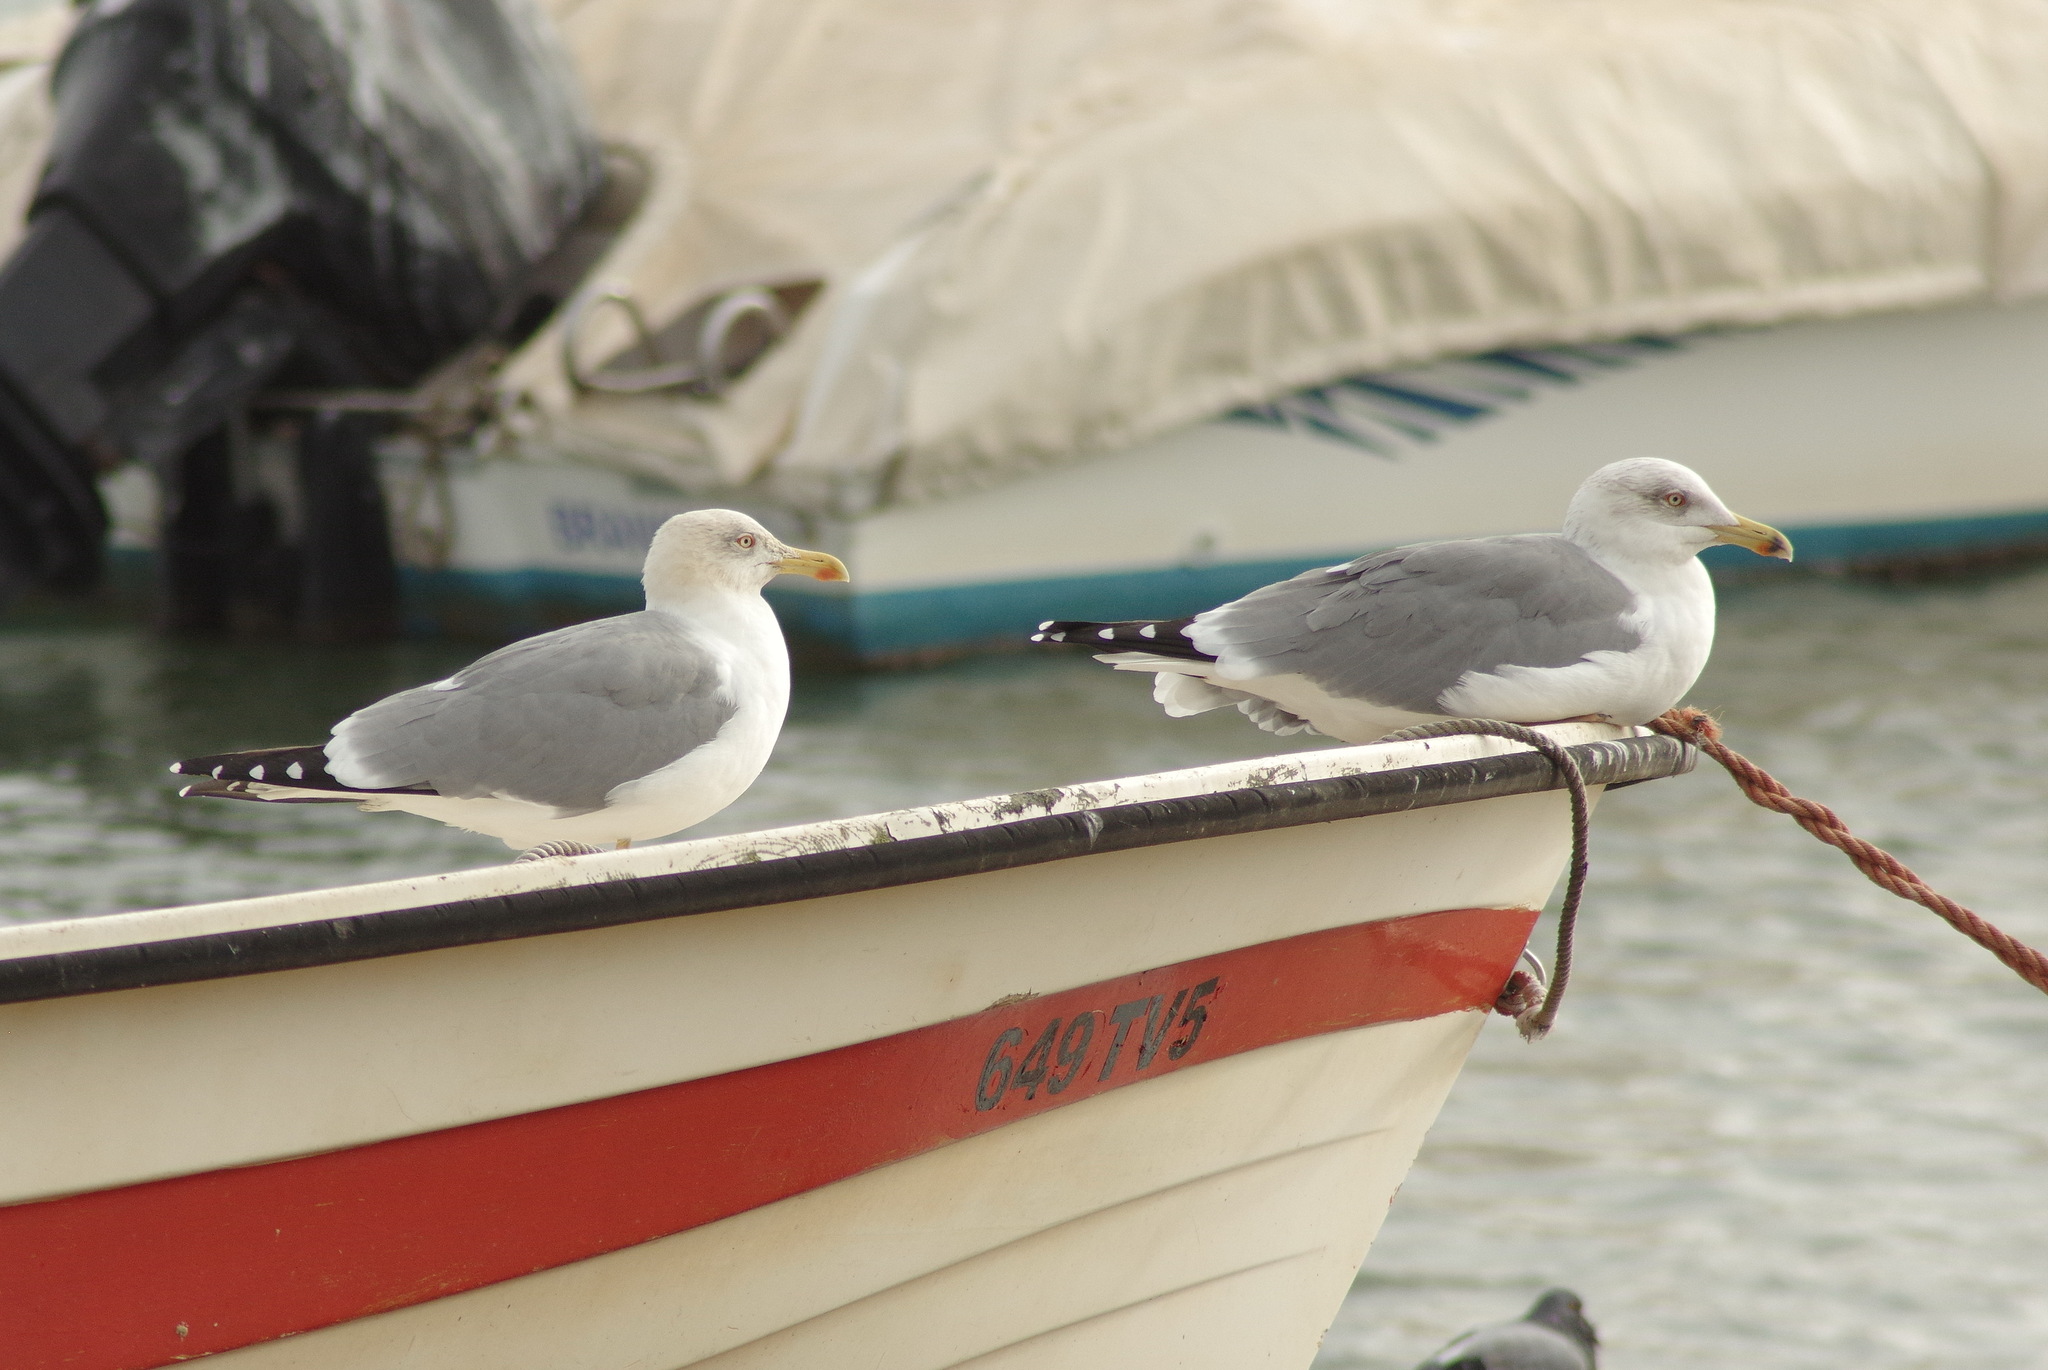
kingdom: Animalia
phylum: Chordata
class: Aves
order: Charadriiformes
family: Laridae
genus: Larus
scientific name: Larus michahellis
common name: Yellow-legged gull
